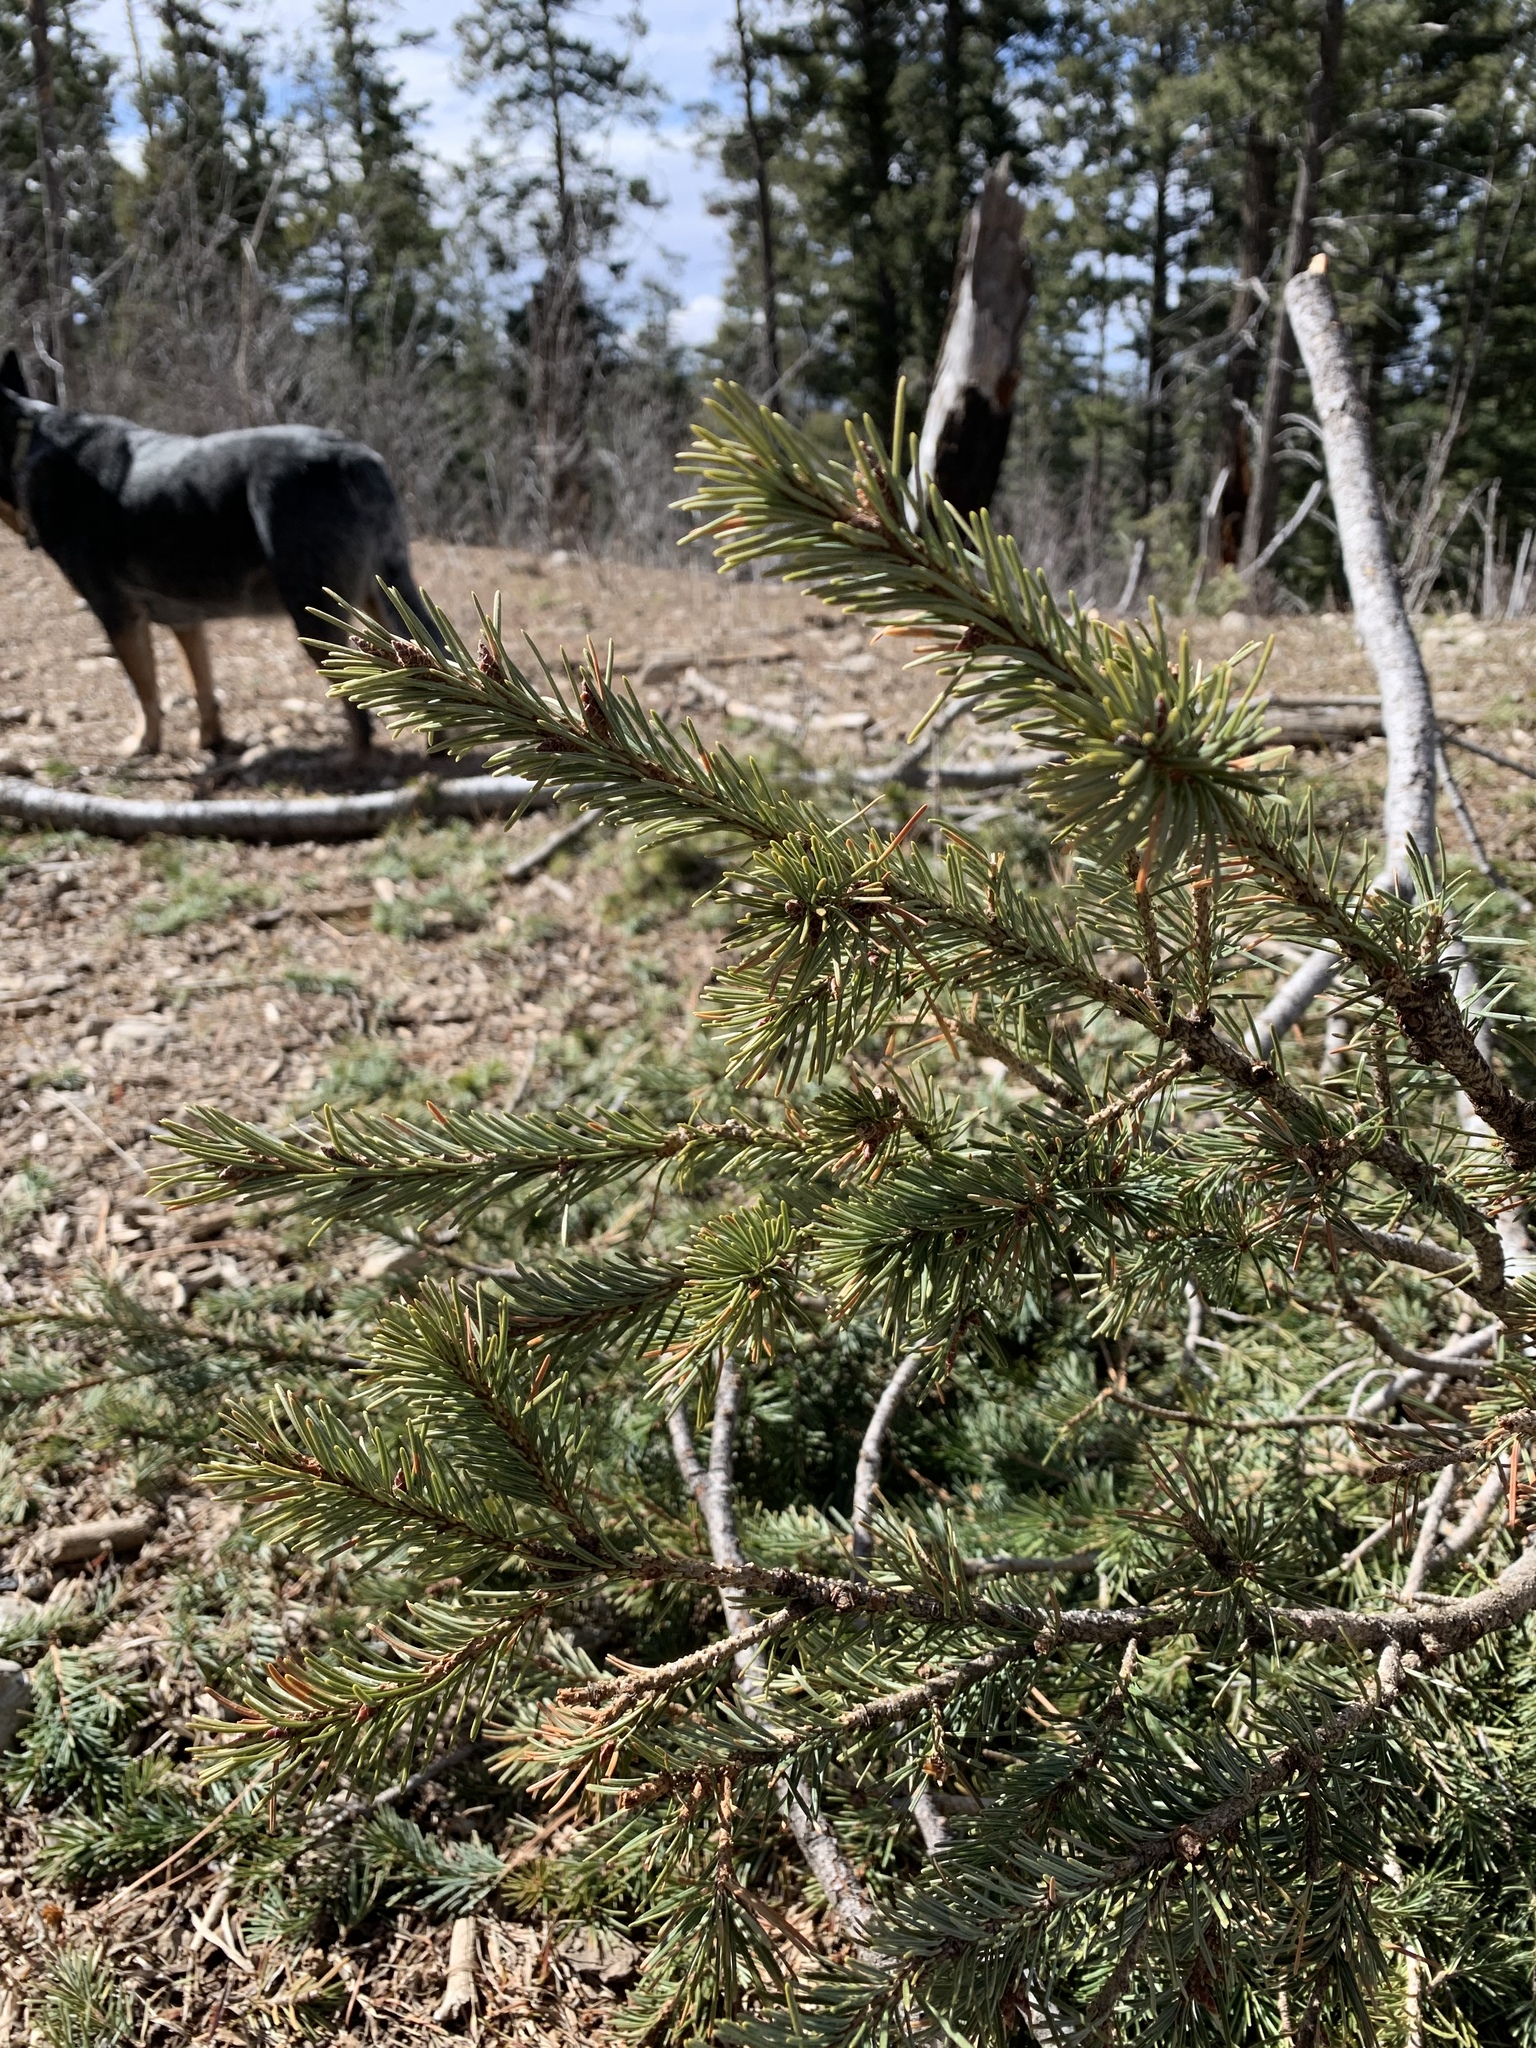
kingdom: Plantae
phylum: Tracheophyta
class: Pinopsida
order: Pinales
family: Pinaceae
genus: Pseudotsuga
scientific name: Pseudotsuga menziesii
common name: Douglas fir
